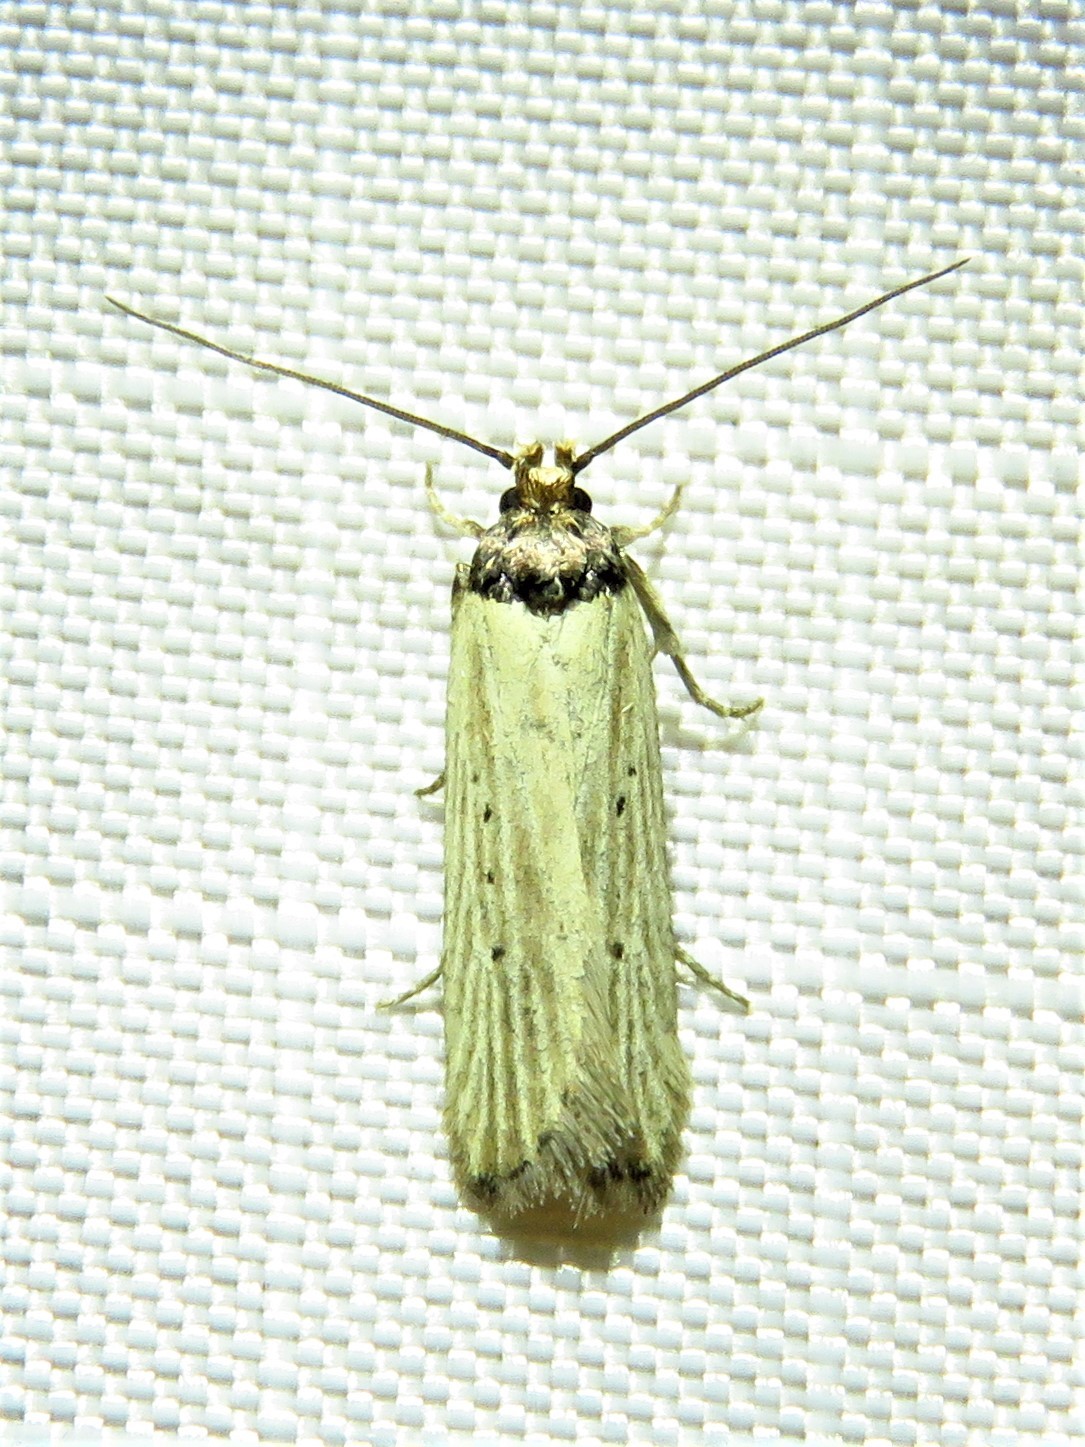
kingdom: Animalia
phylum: Arthropoda
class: Insecta
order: Lepidoptera
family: Depressariidae
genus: Exaeretia
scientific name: Exaeretia gracilis
